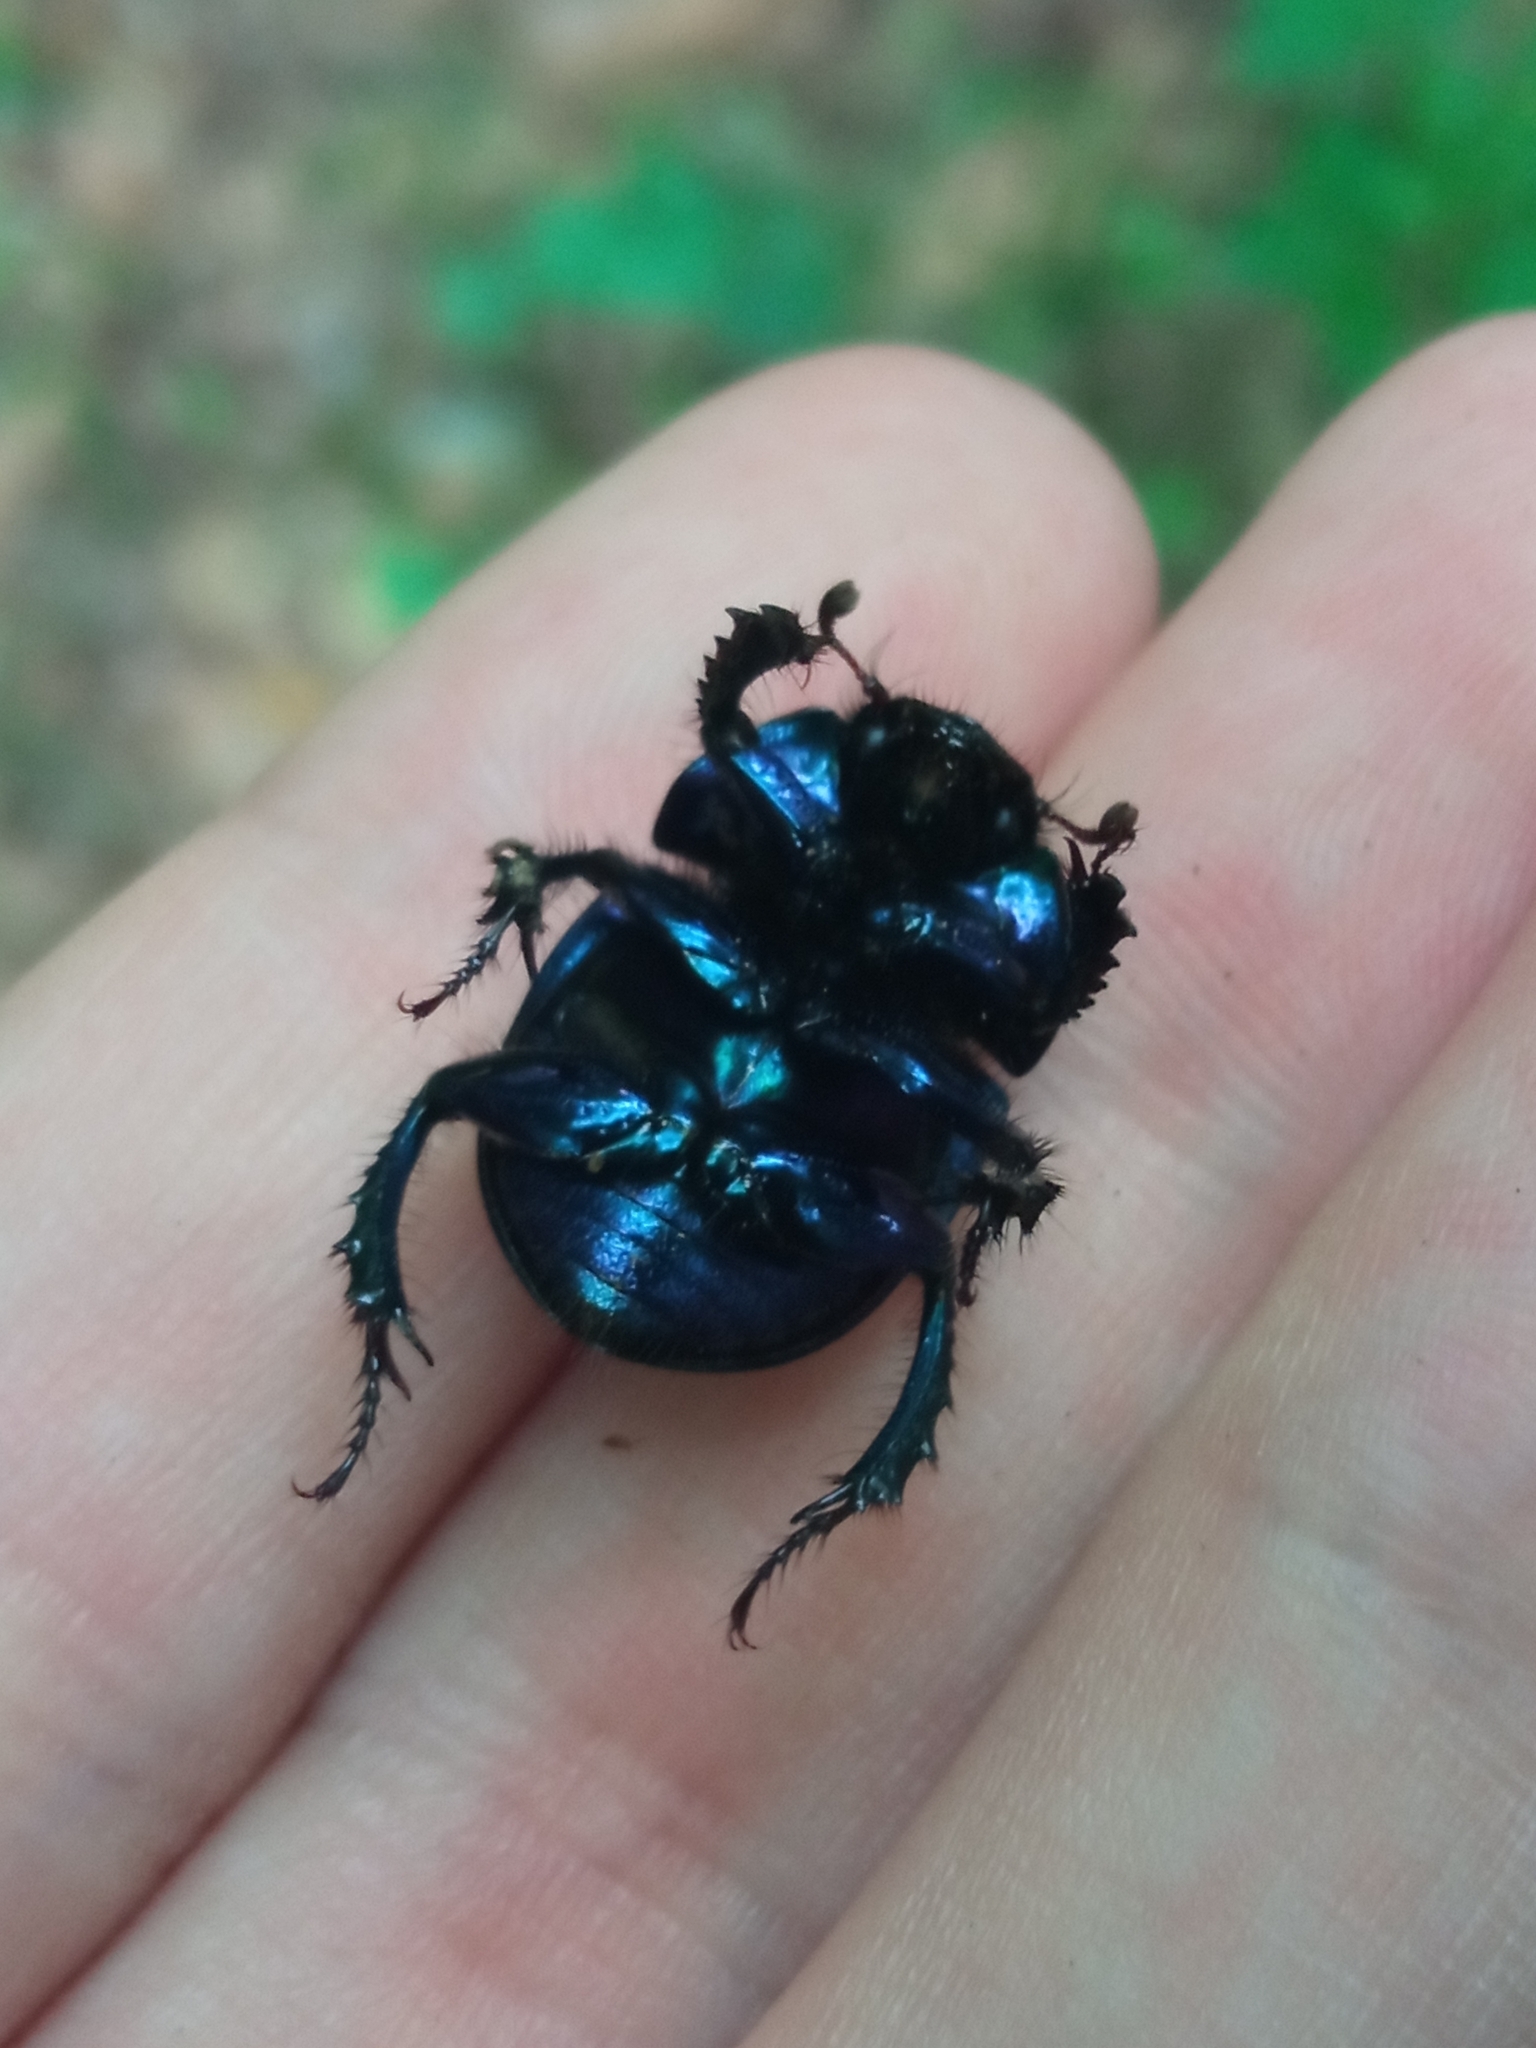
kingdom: Animalia
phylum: Arthropoda
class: Insecta
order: Coleoptera
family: Geotrupidae
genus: Anoplotrupes
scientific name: Anoplotrupes stercorosus
